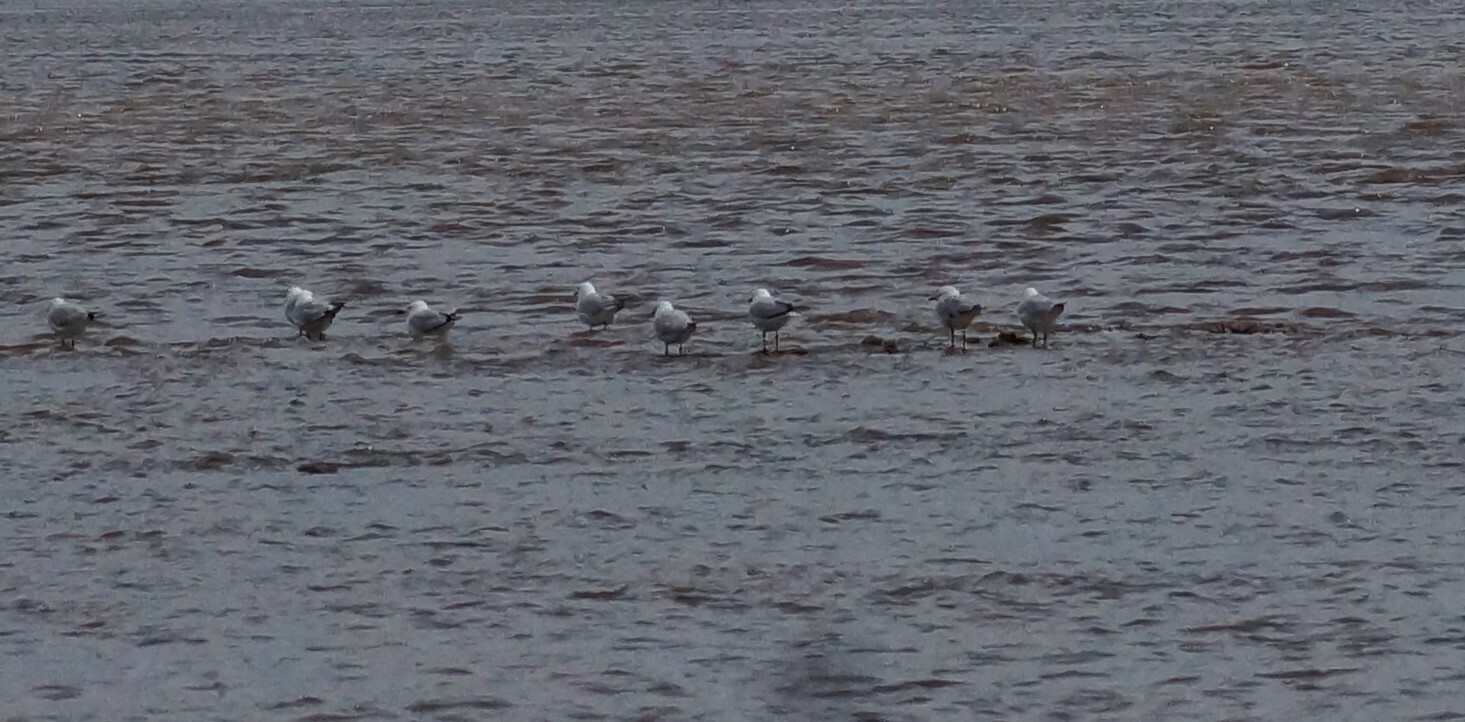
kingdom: Animalia
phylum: Chordata
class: Aves
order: Charadriiformes
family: Laridae
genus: Chroicocephalus
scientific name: Chroicocephalus novaehollandiae
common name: Silver gull
